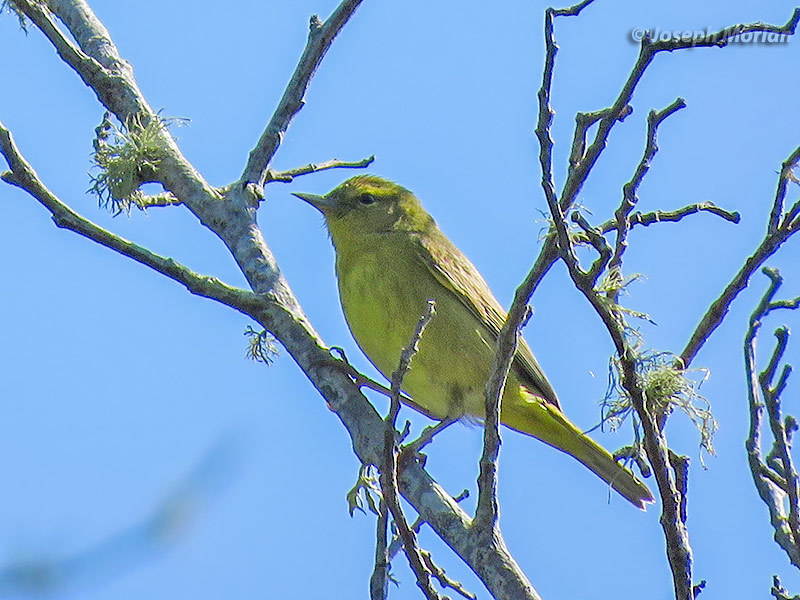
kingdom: Animalia
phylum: Chordata
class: Aves
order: Passeriformes
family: Parulidae
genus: Leiothlypis
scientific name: Leiothlypis celata
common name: Orange-crowned warbler
